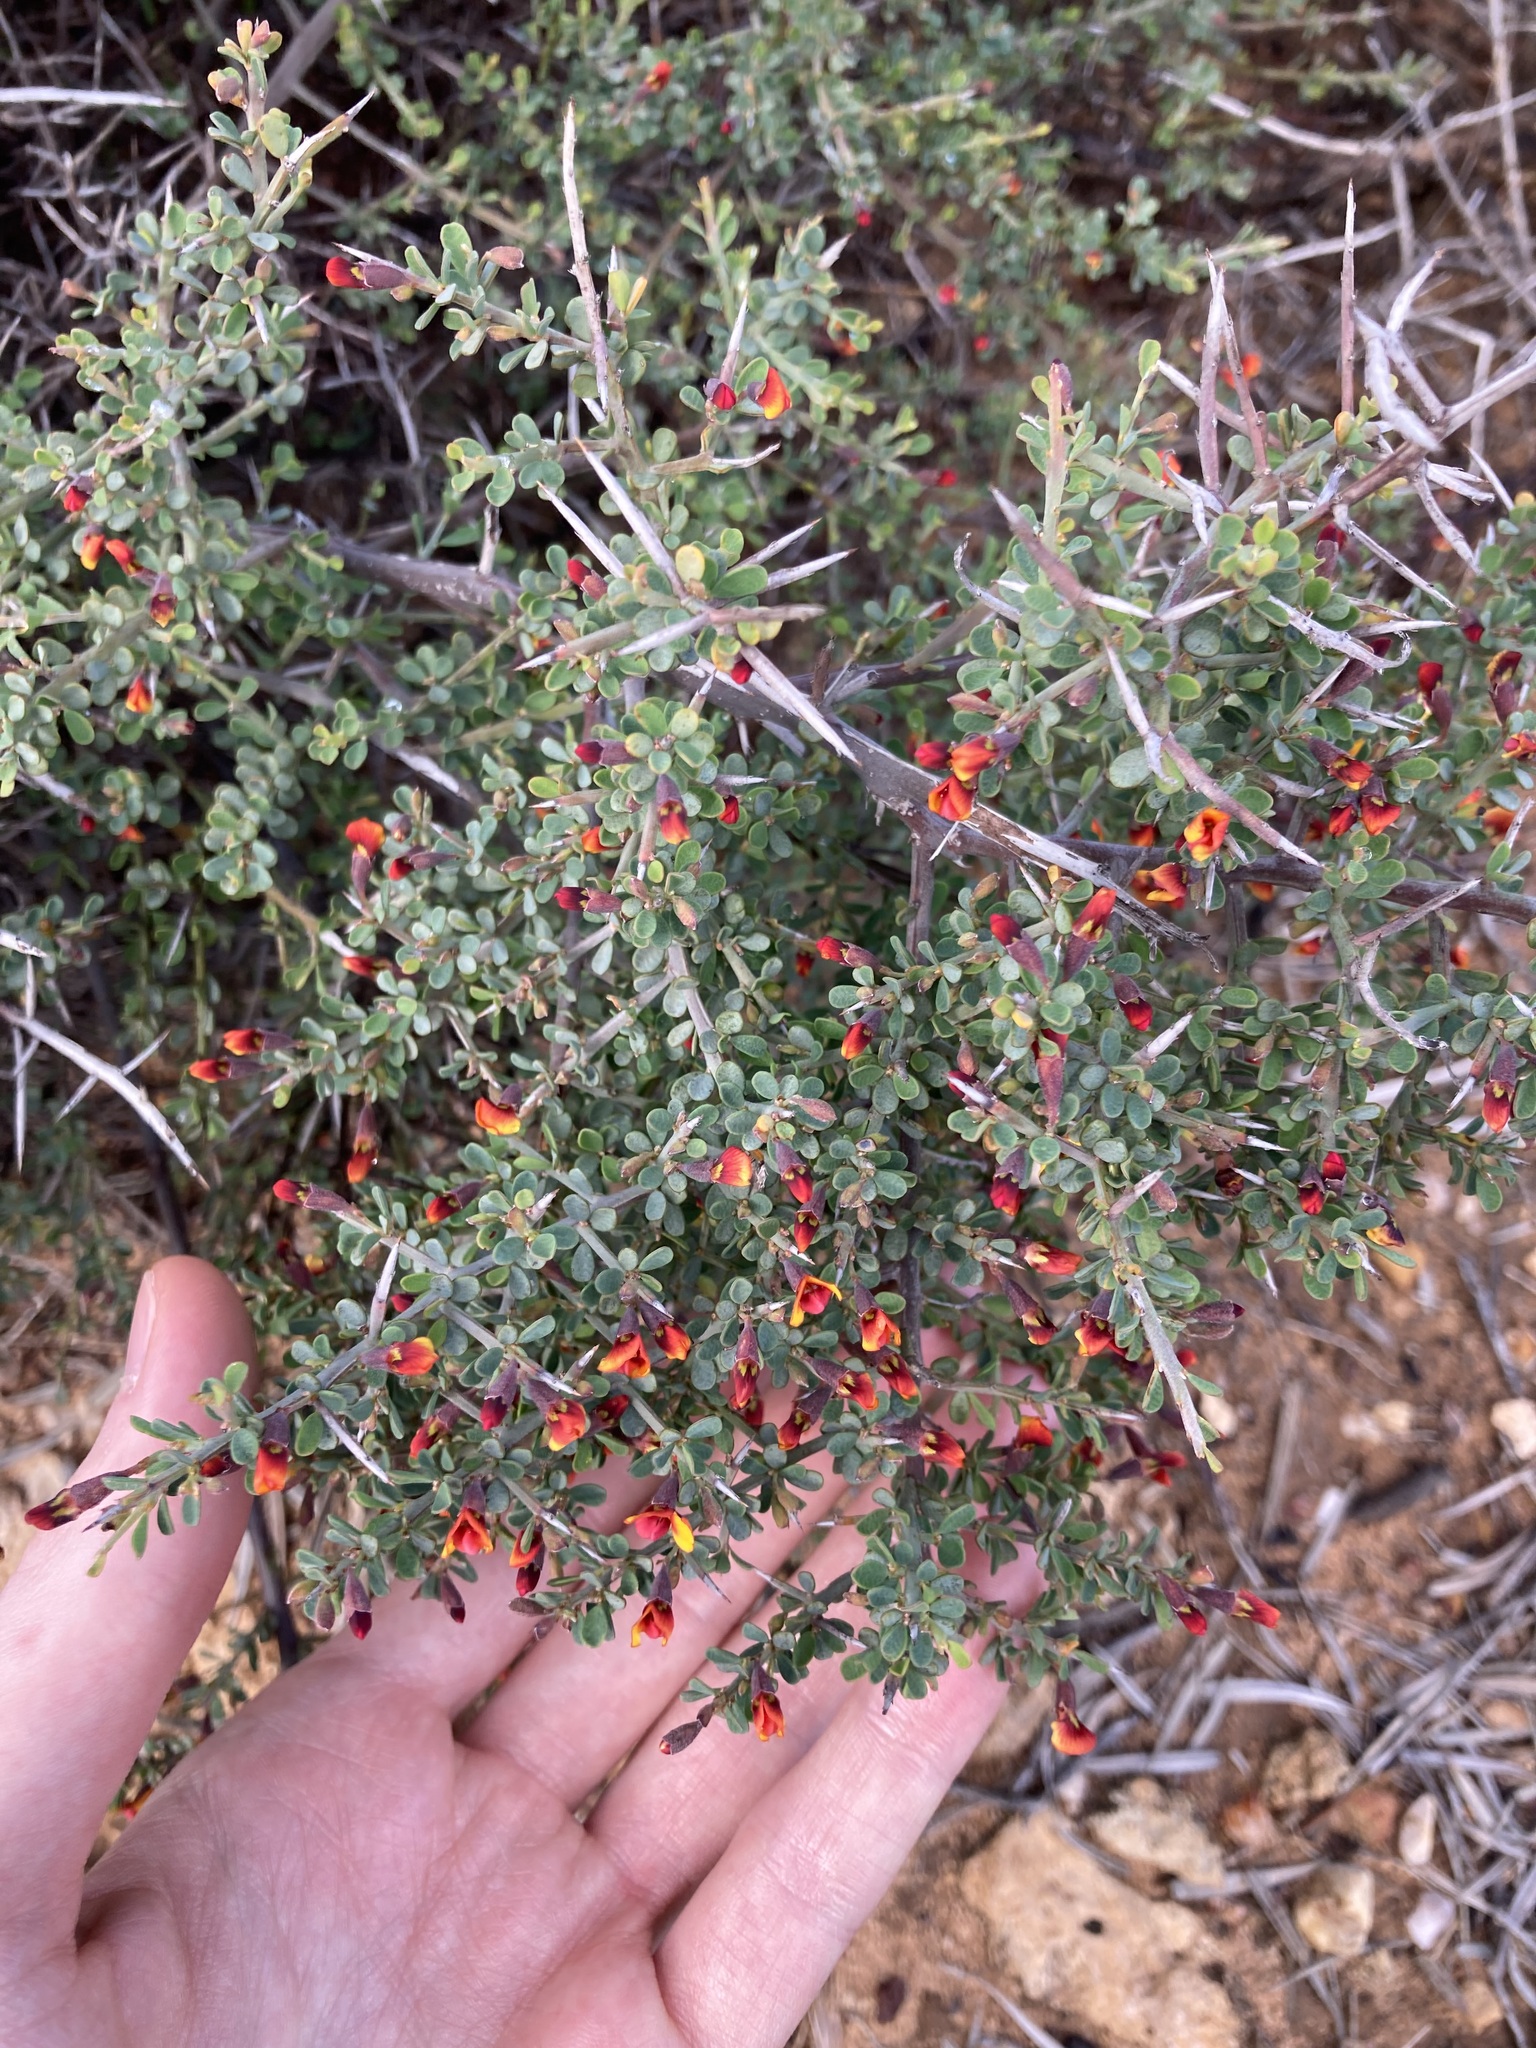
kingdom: Plantae
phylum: Tracheophyta
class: Magnoliopsida
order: Fabales
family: Fabaceae
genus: Bossiaea
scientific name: Bossiaea calcicola
